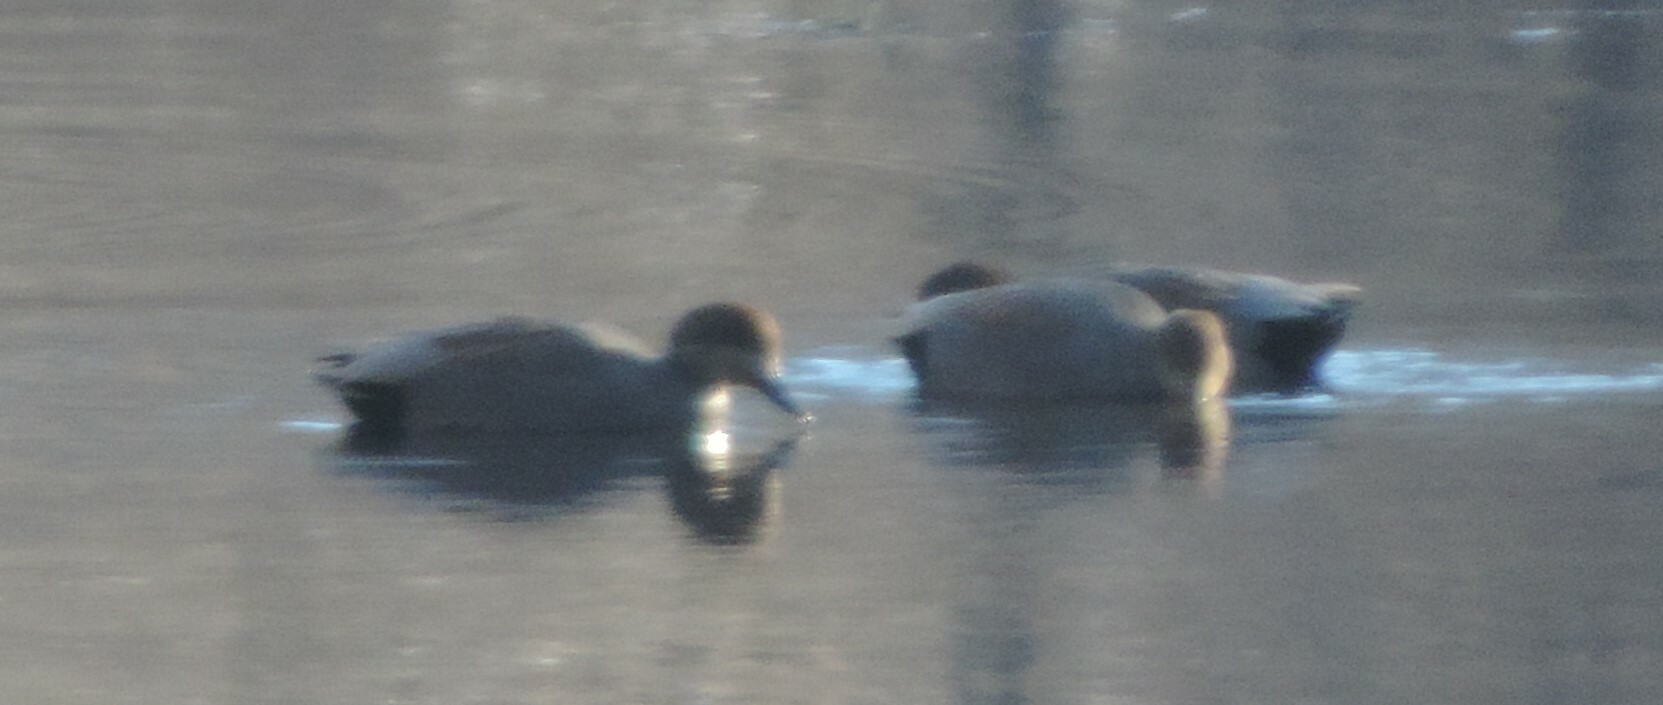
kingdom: Animalia
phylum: Chordata
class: Aves
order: Anseriformes
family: Anatidae
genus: Mareca
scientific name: Mareca strepera
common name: Gadwall
